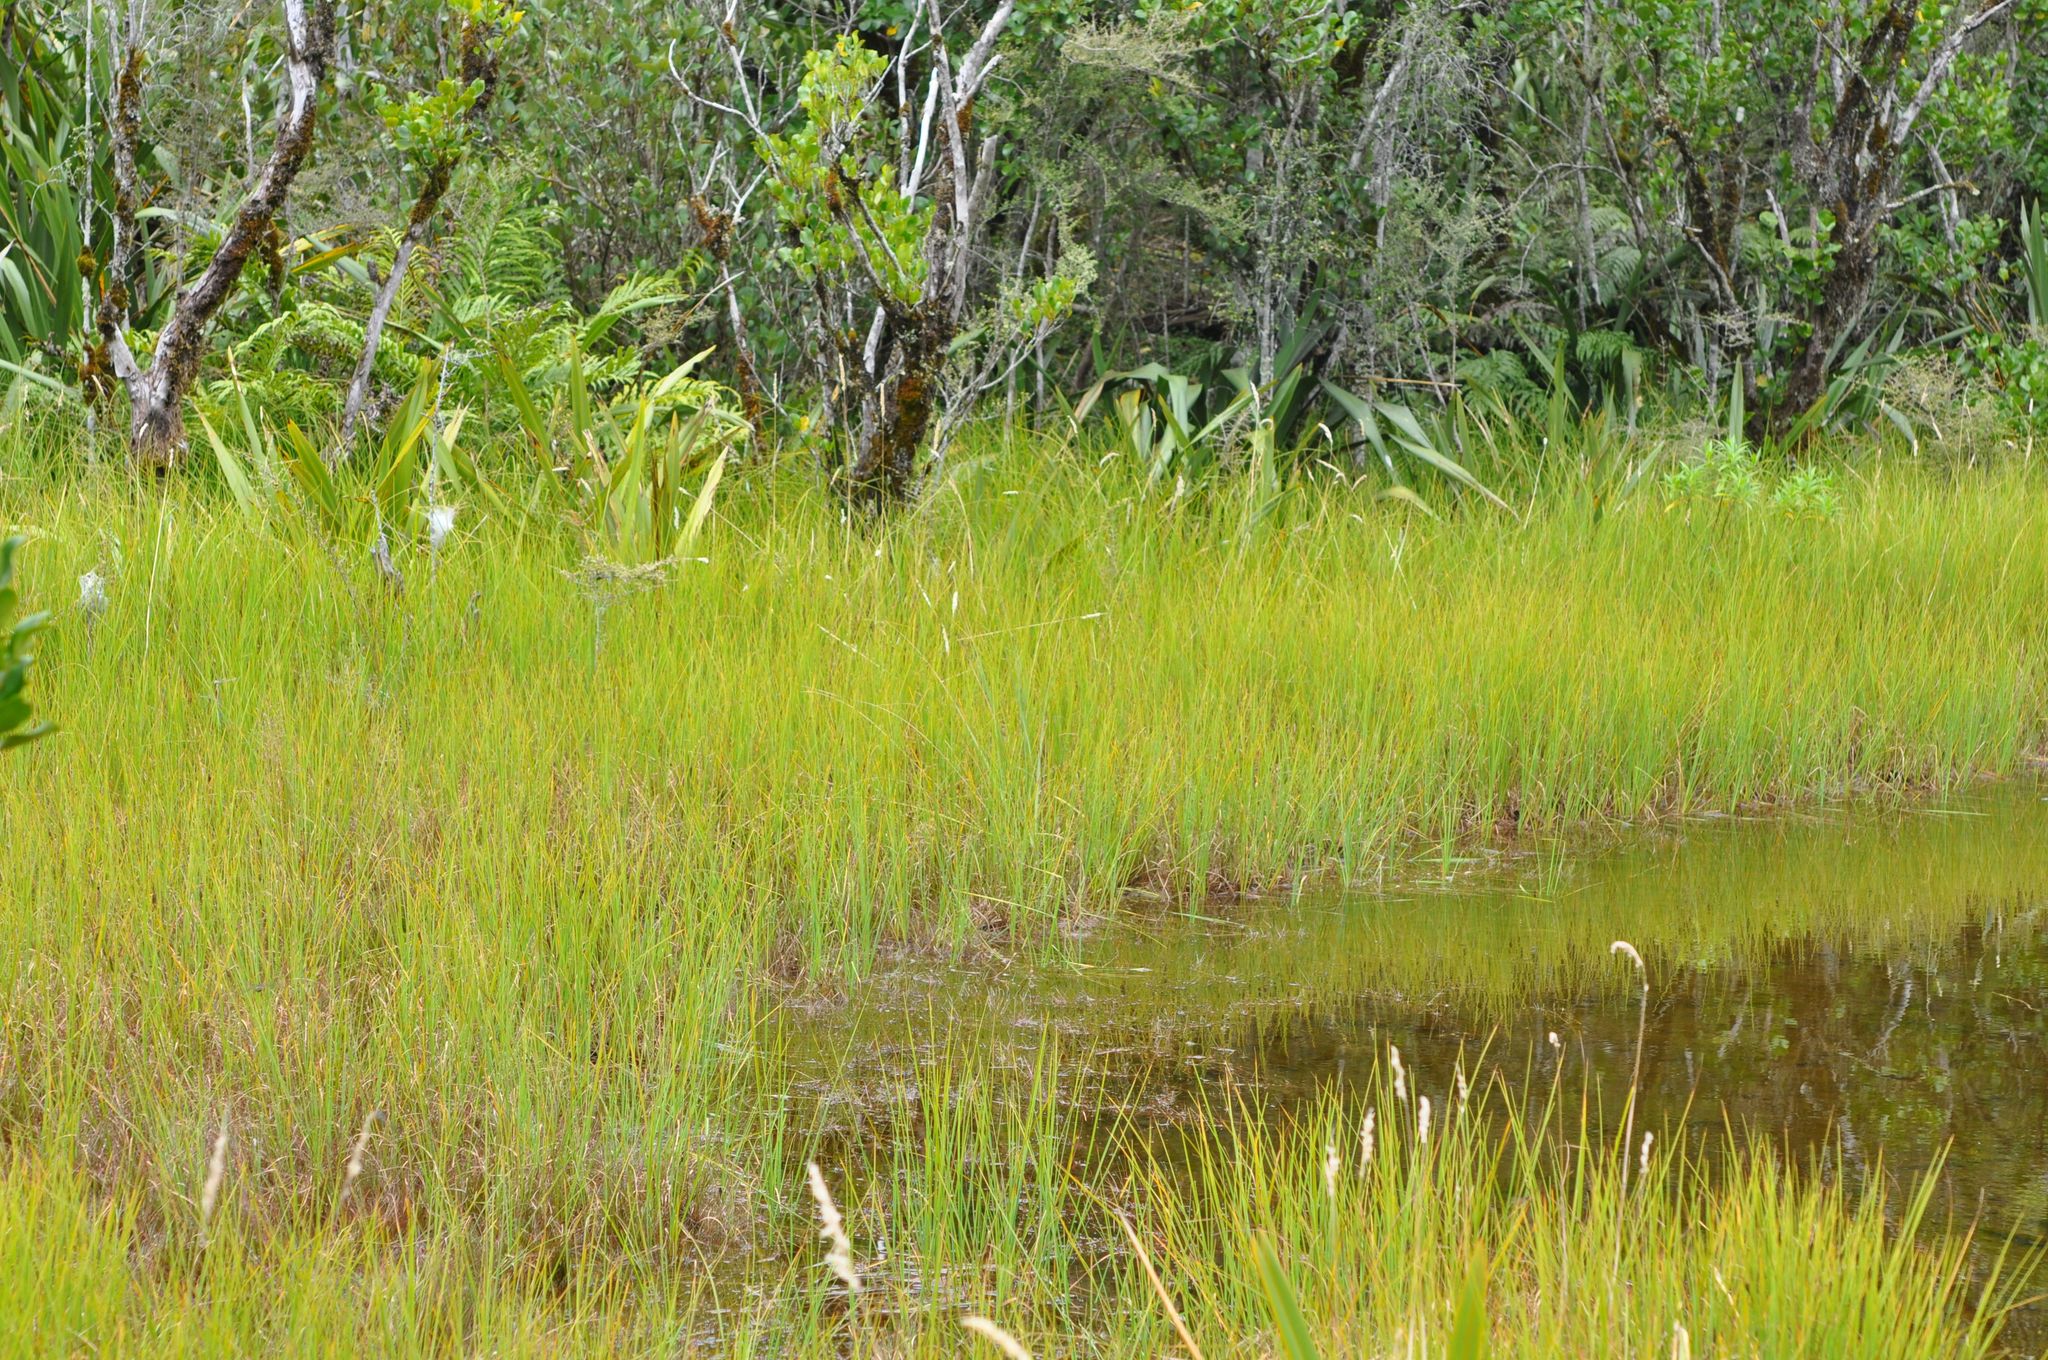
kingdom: Plantae
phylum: Tracheophyta
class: Liliopsida
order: Poales
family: Cyperaceae
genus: Carex
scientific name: Carex gaudichaudiana
